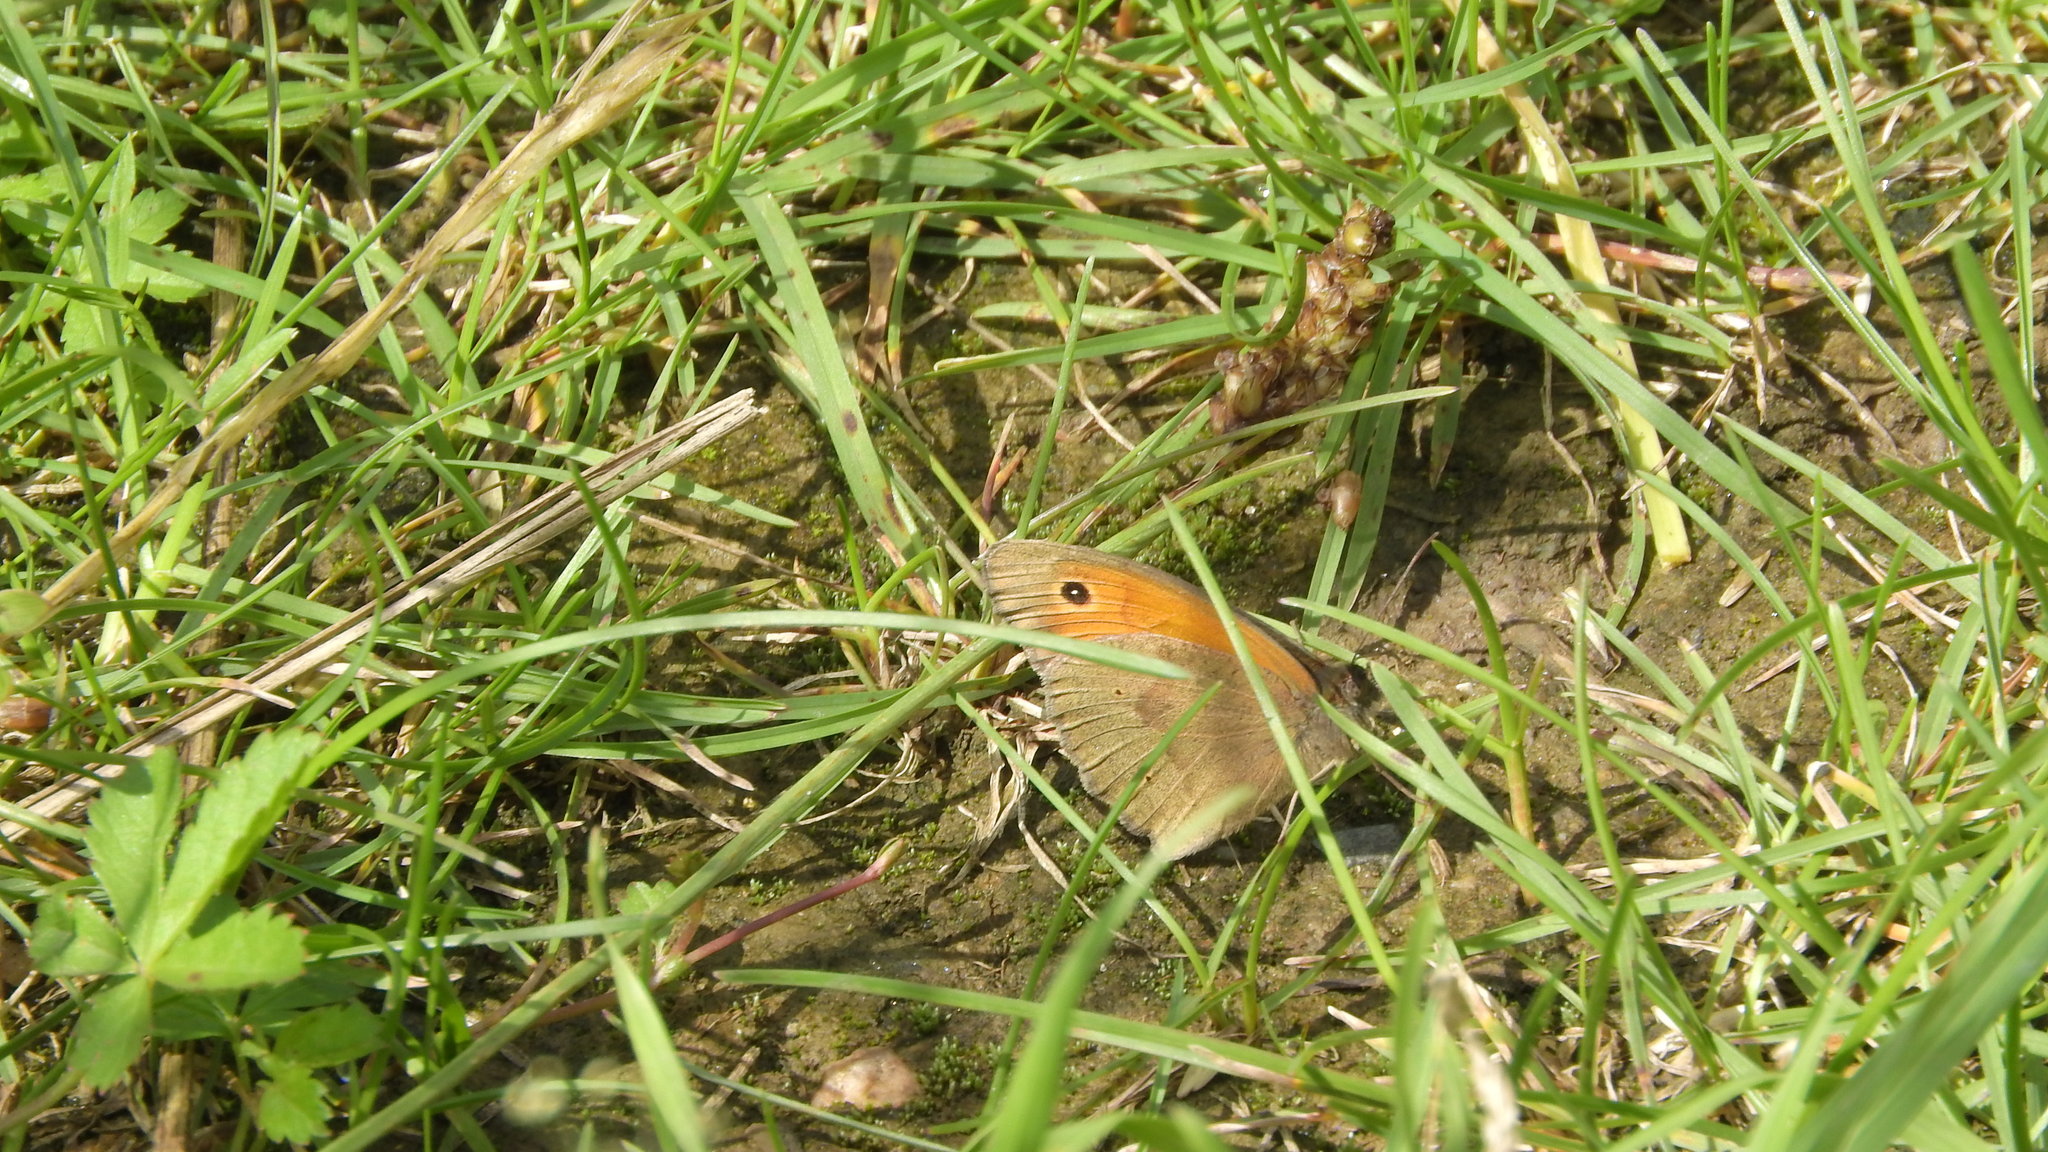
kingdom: Animalia
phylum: Arthropoda
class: Insecta
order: Lepidoptera
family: Nymphalidae
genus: Maniola
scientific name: Maniola jurtina
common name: Meadow brown
